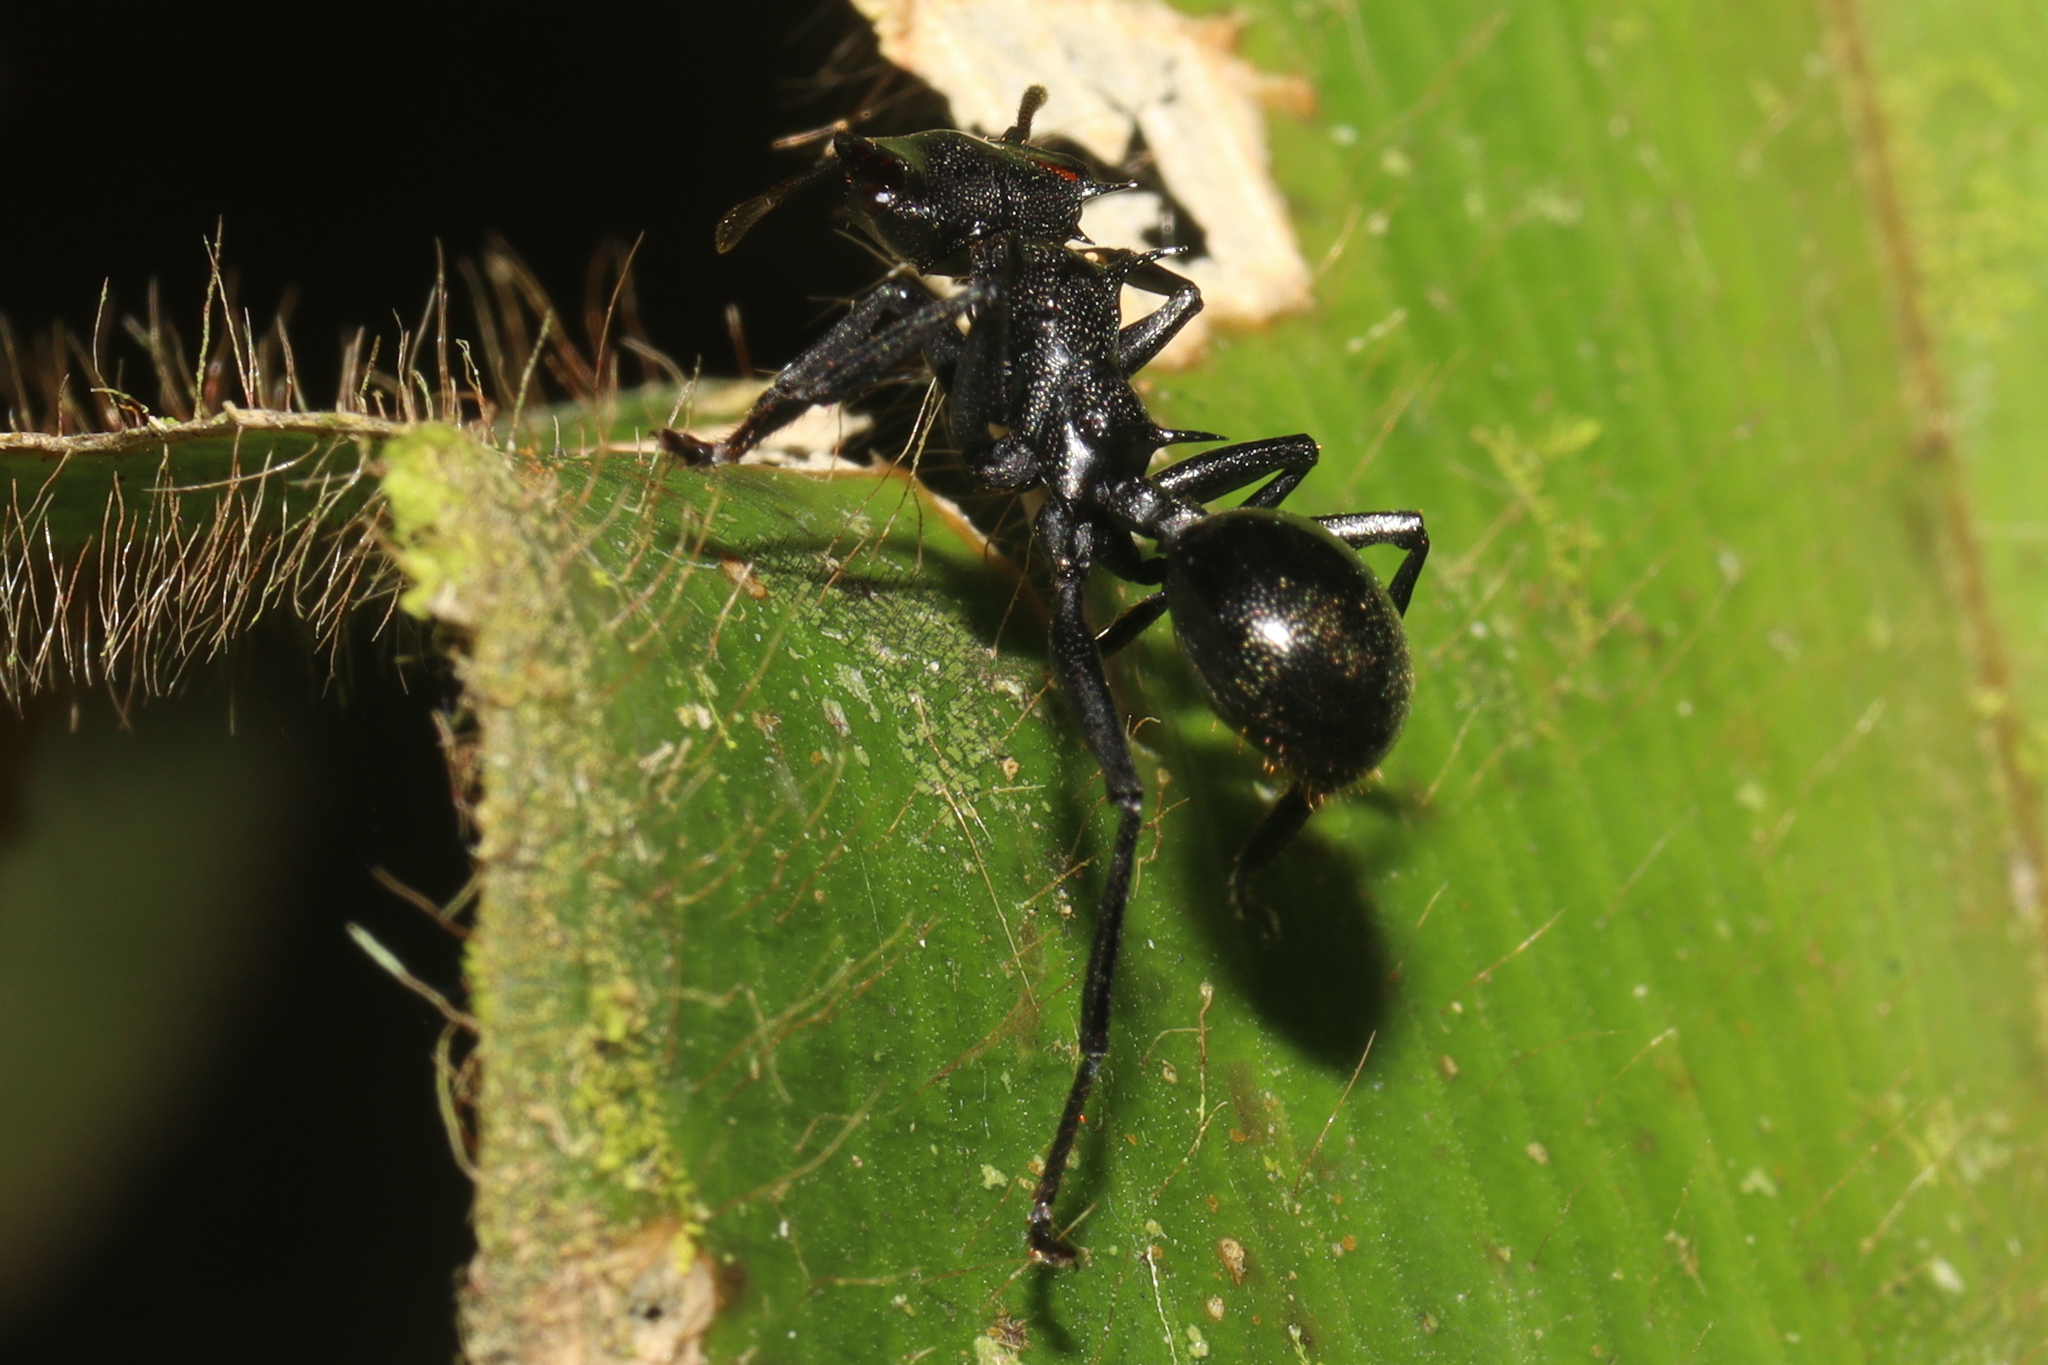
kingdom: Animalia
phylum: Arthropoda
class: Insecta
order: Hymenoptera
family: Formicidae
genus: Cephalotes
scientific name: Cephalotes atratus
